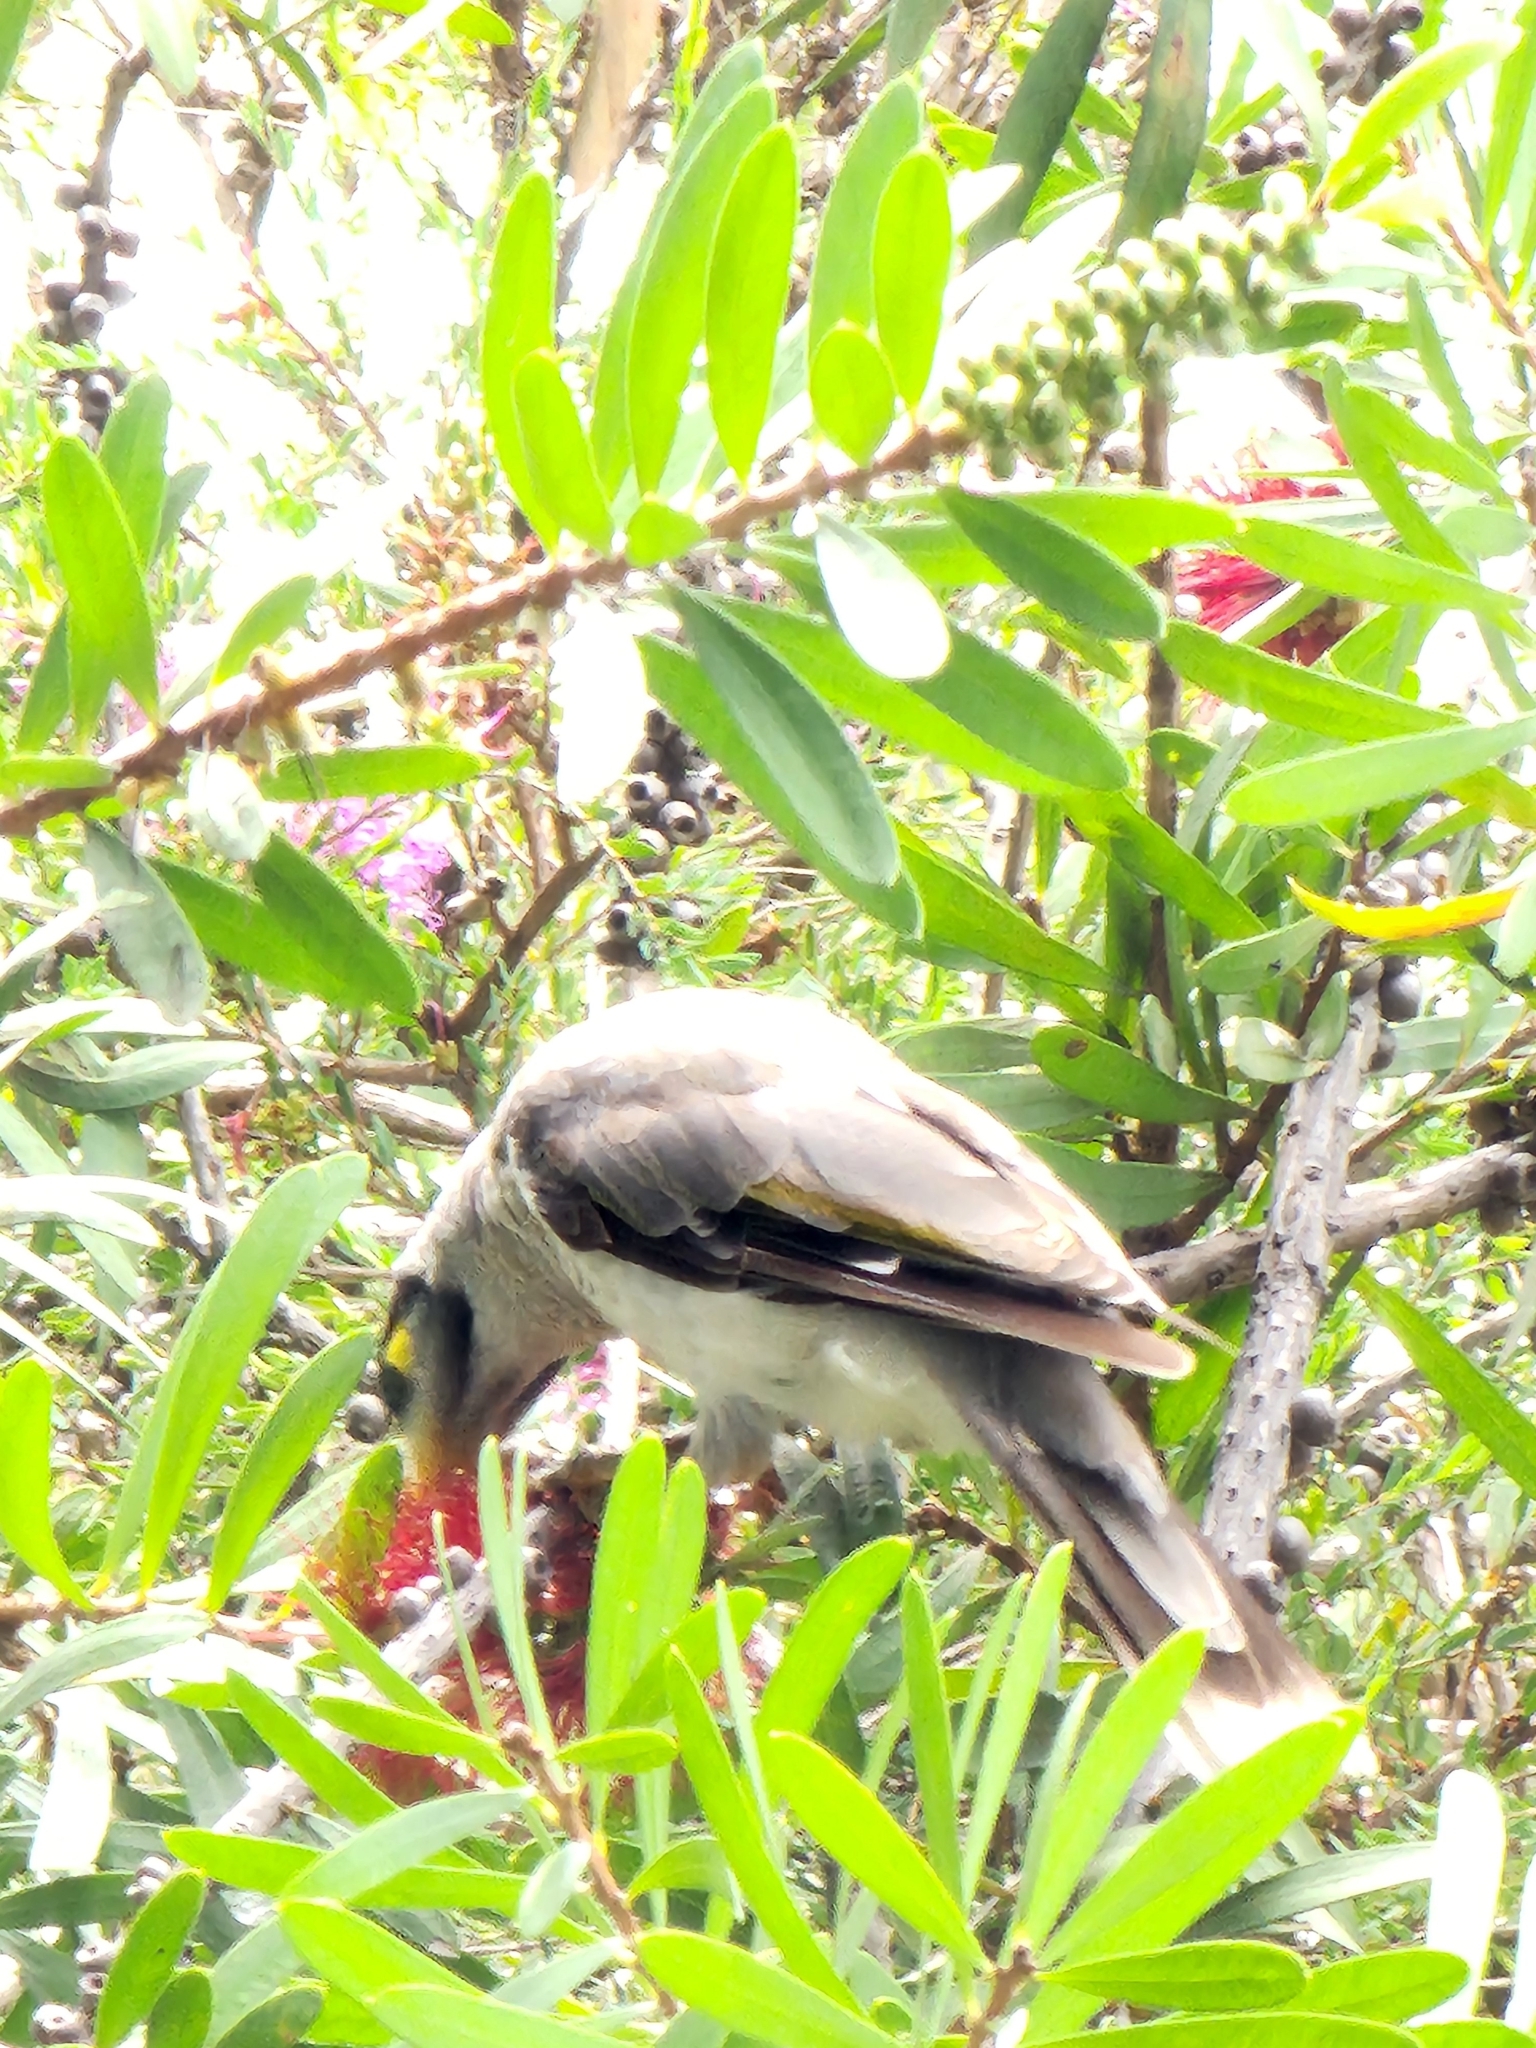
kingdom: Animalia
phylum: Chordata
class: Aves
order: Passeriformes
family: Meliphagidae
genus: Manorina
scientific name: Manorina melanocephala
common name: Noisy miner
